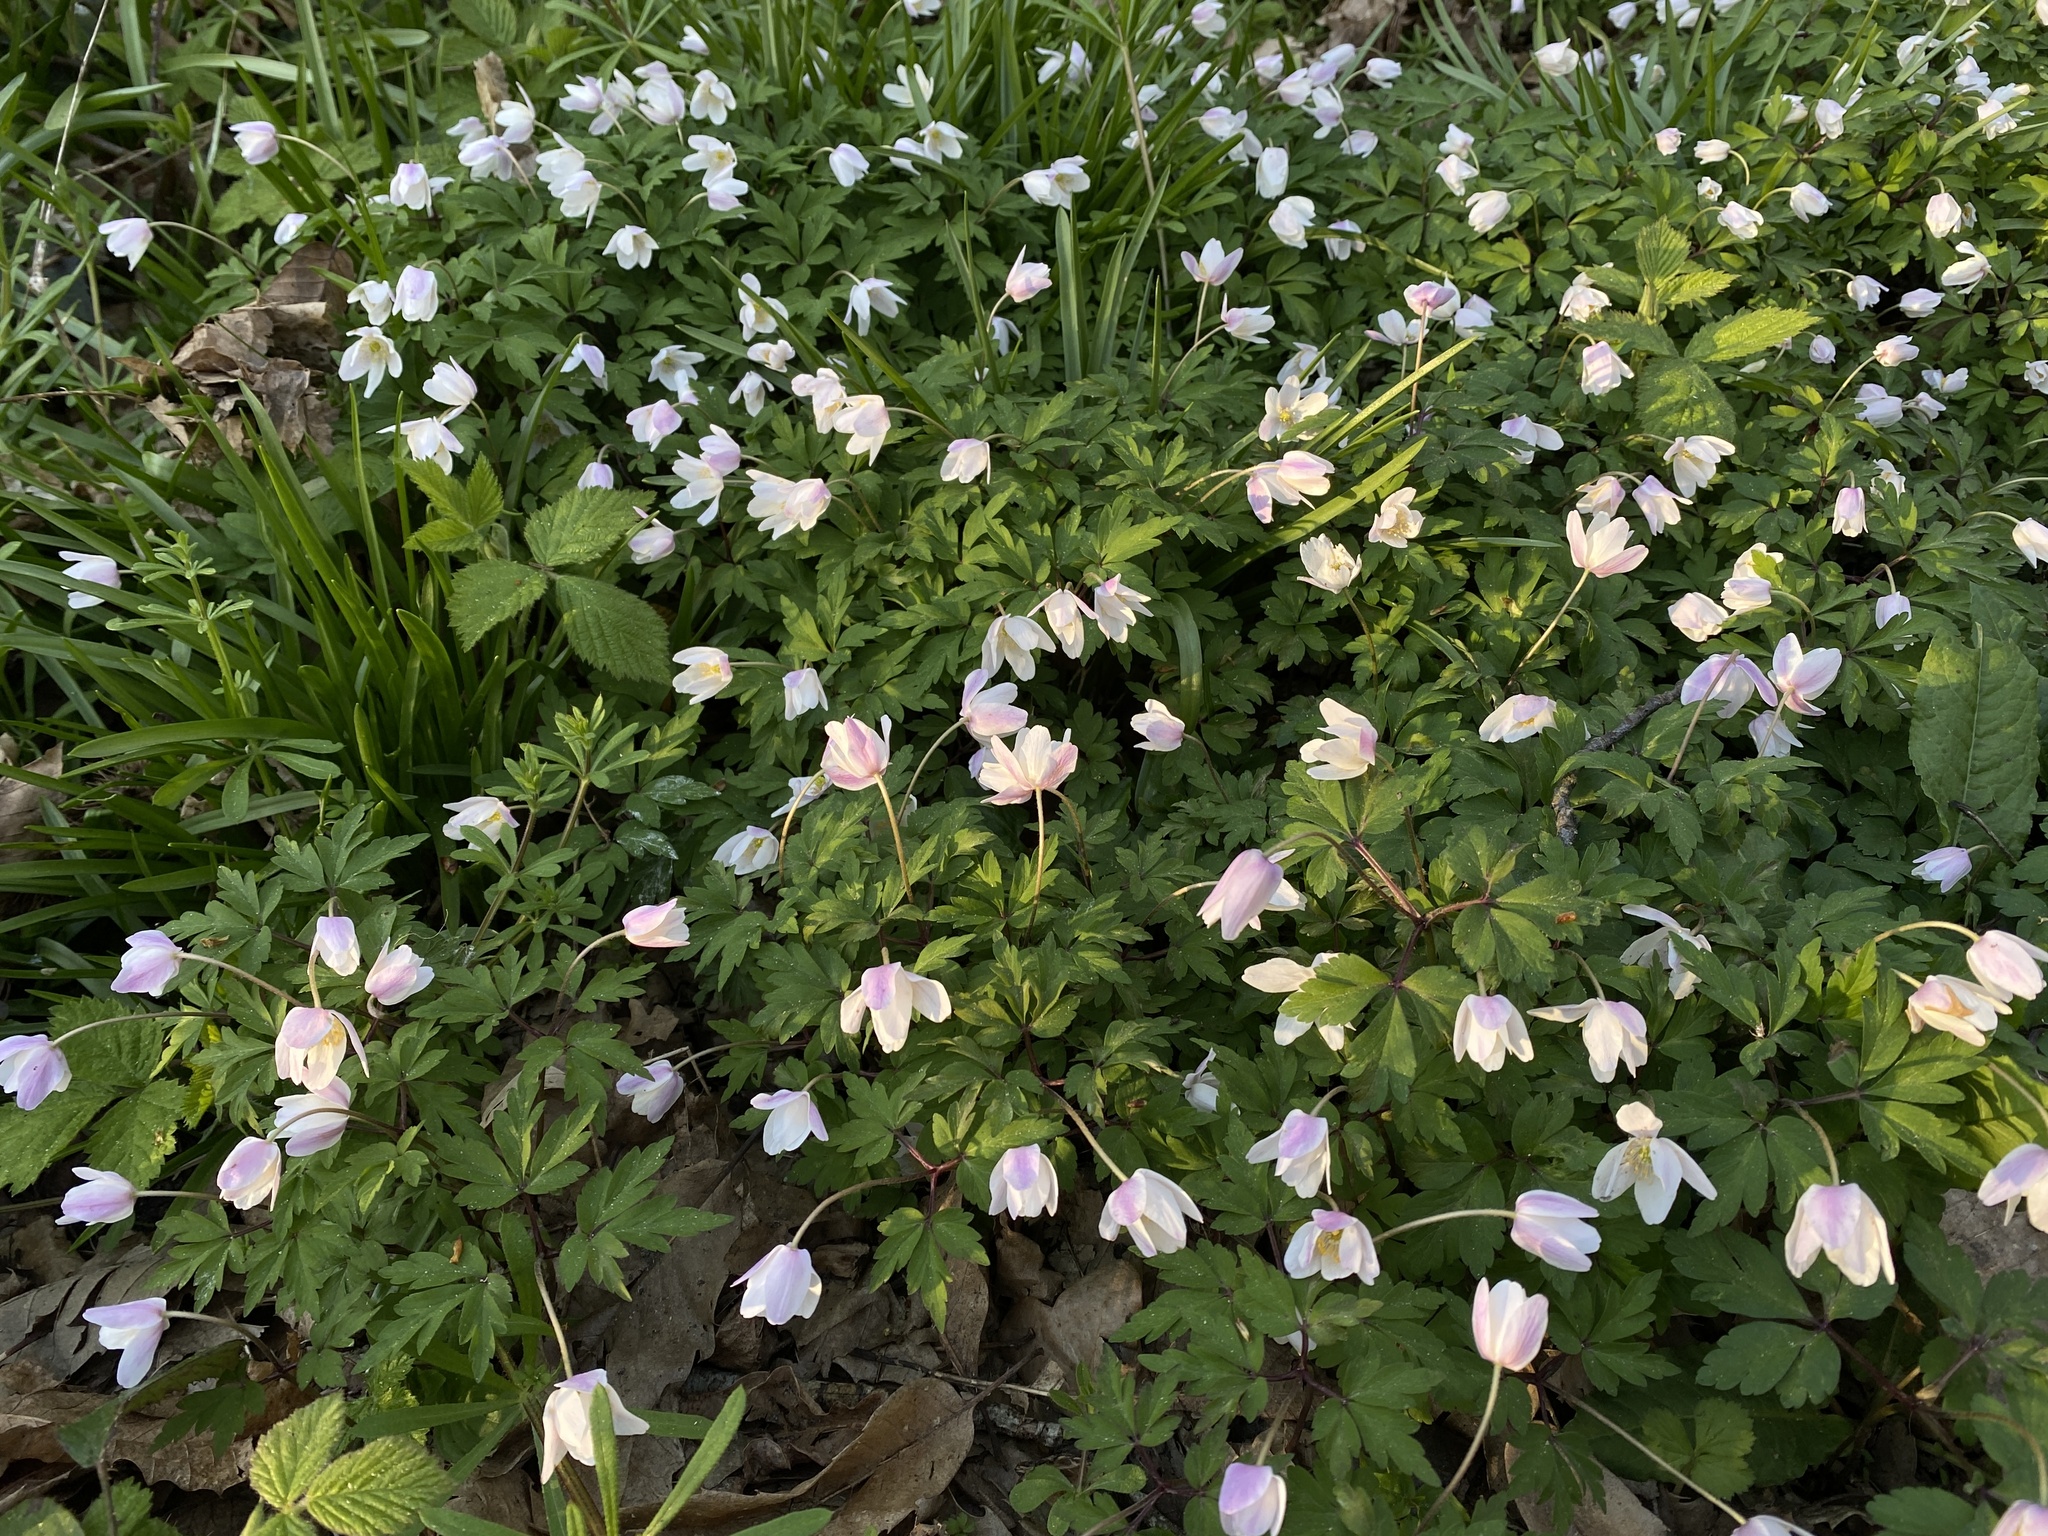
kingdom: Plantae
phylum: Tracheophyta
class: Magnoliopsida
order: Ranunculales
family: Ranunculaceae
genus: Anemone
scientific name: Anemone nemorosa
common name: Wood anemone
